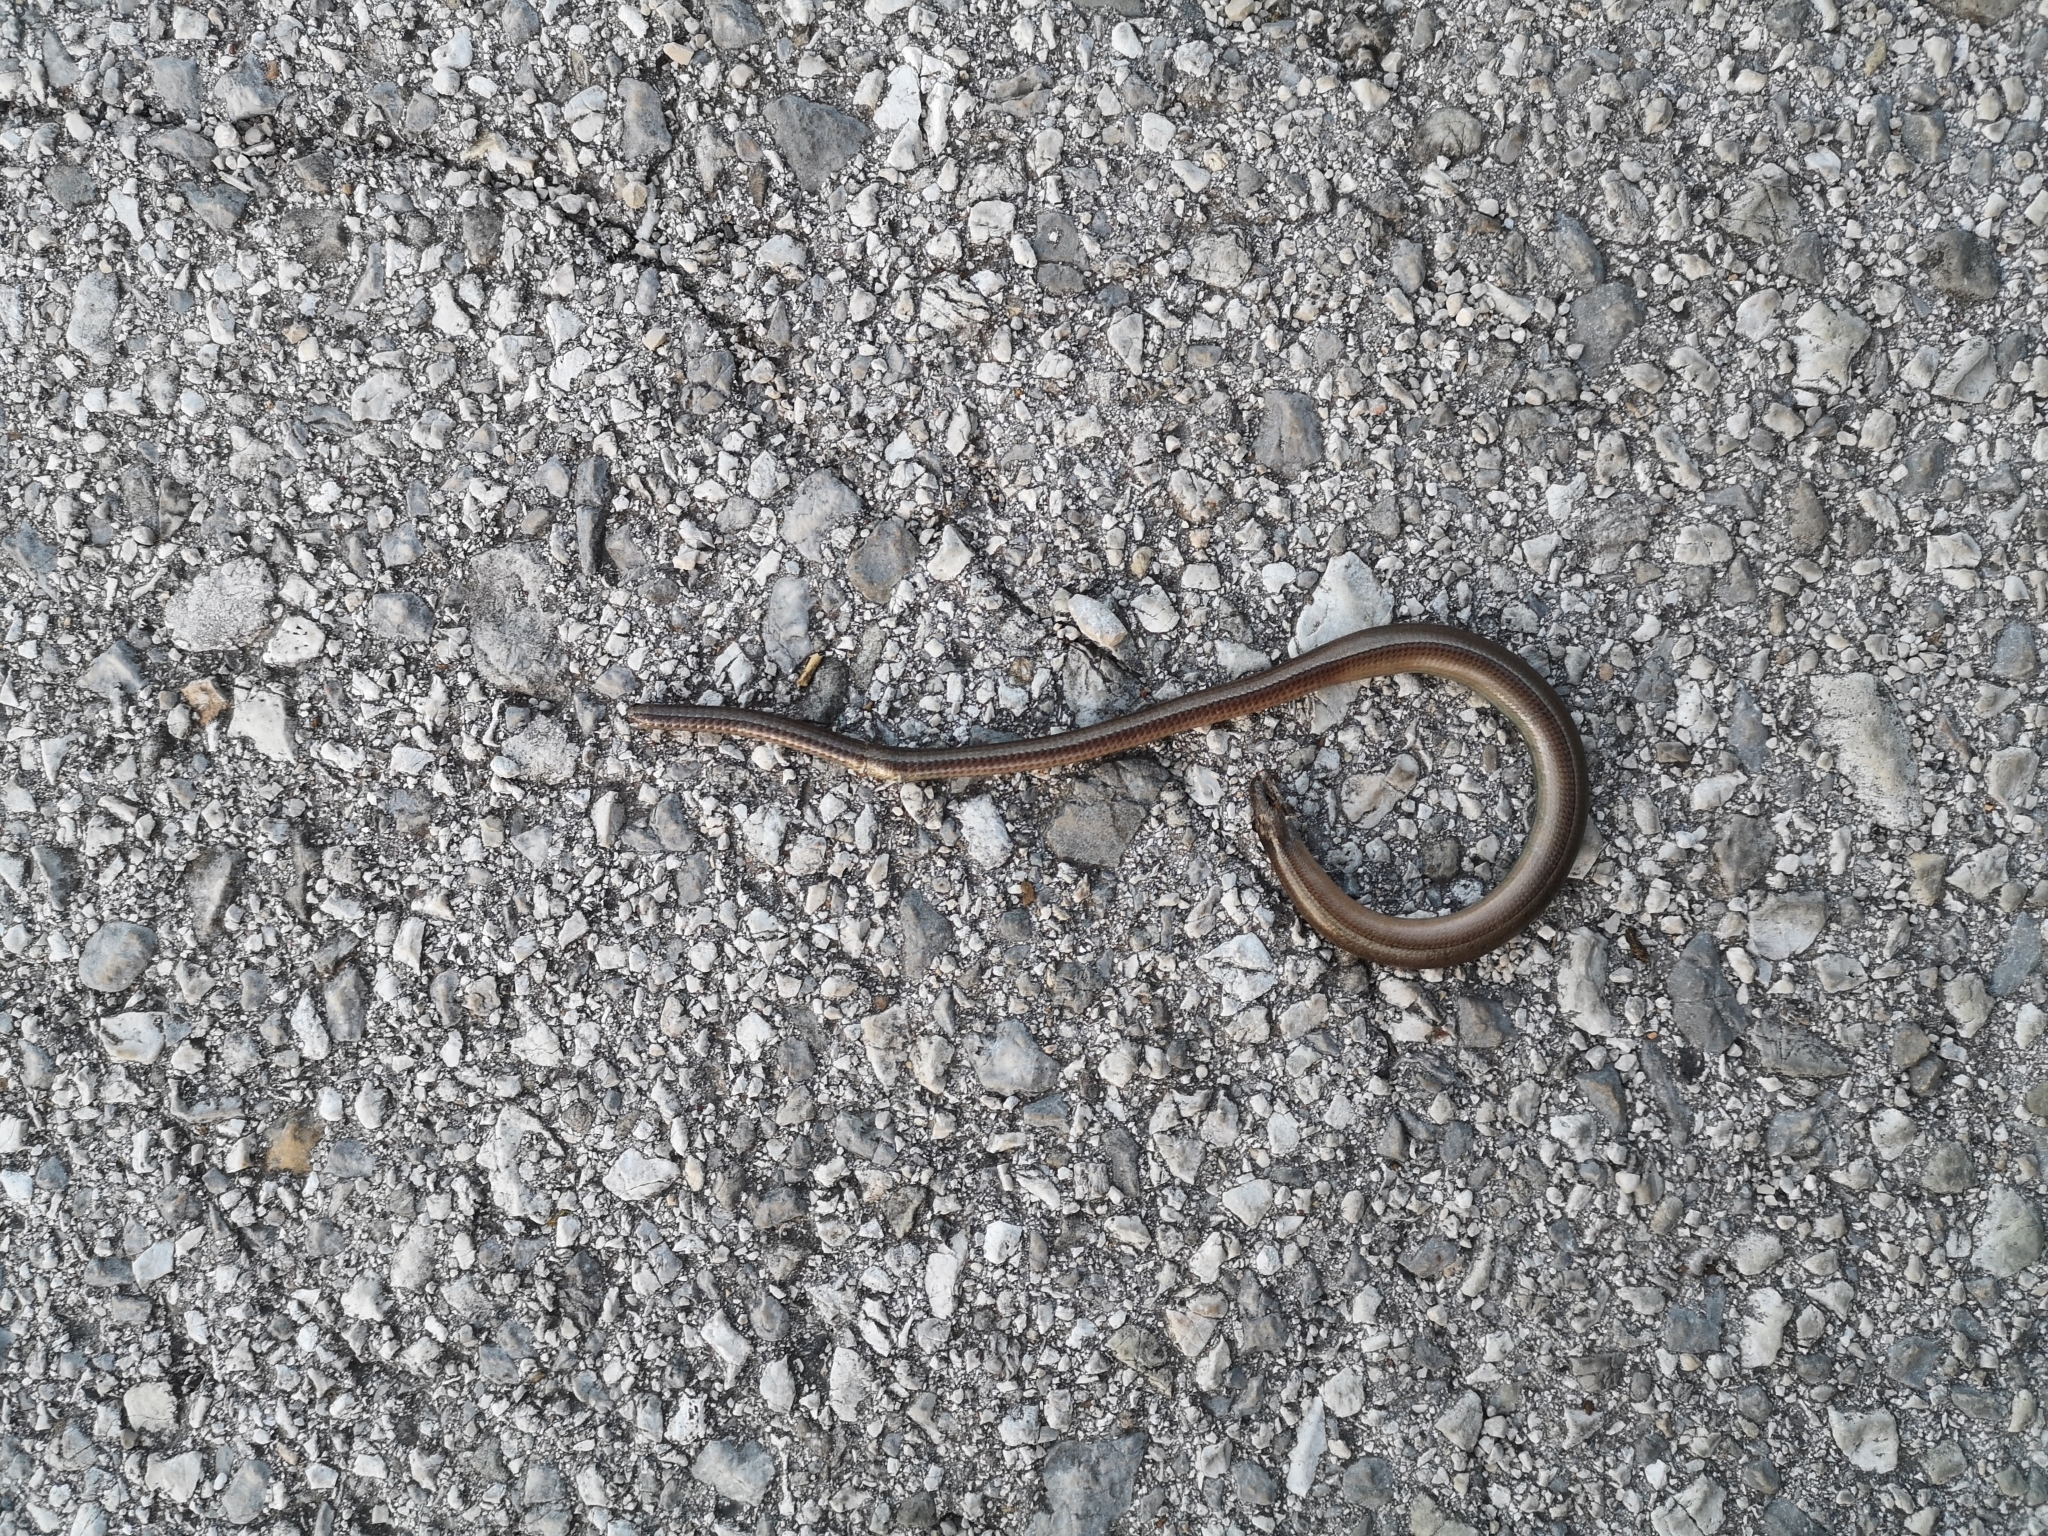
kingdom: Animalia
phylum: Chordata
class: Squamata
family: Anguidae
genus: Anguis
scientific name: Anguis fragilis
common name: Slow worm
